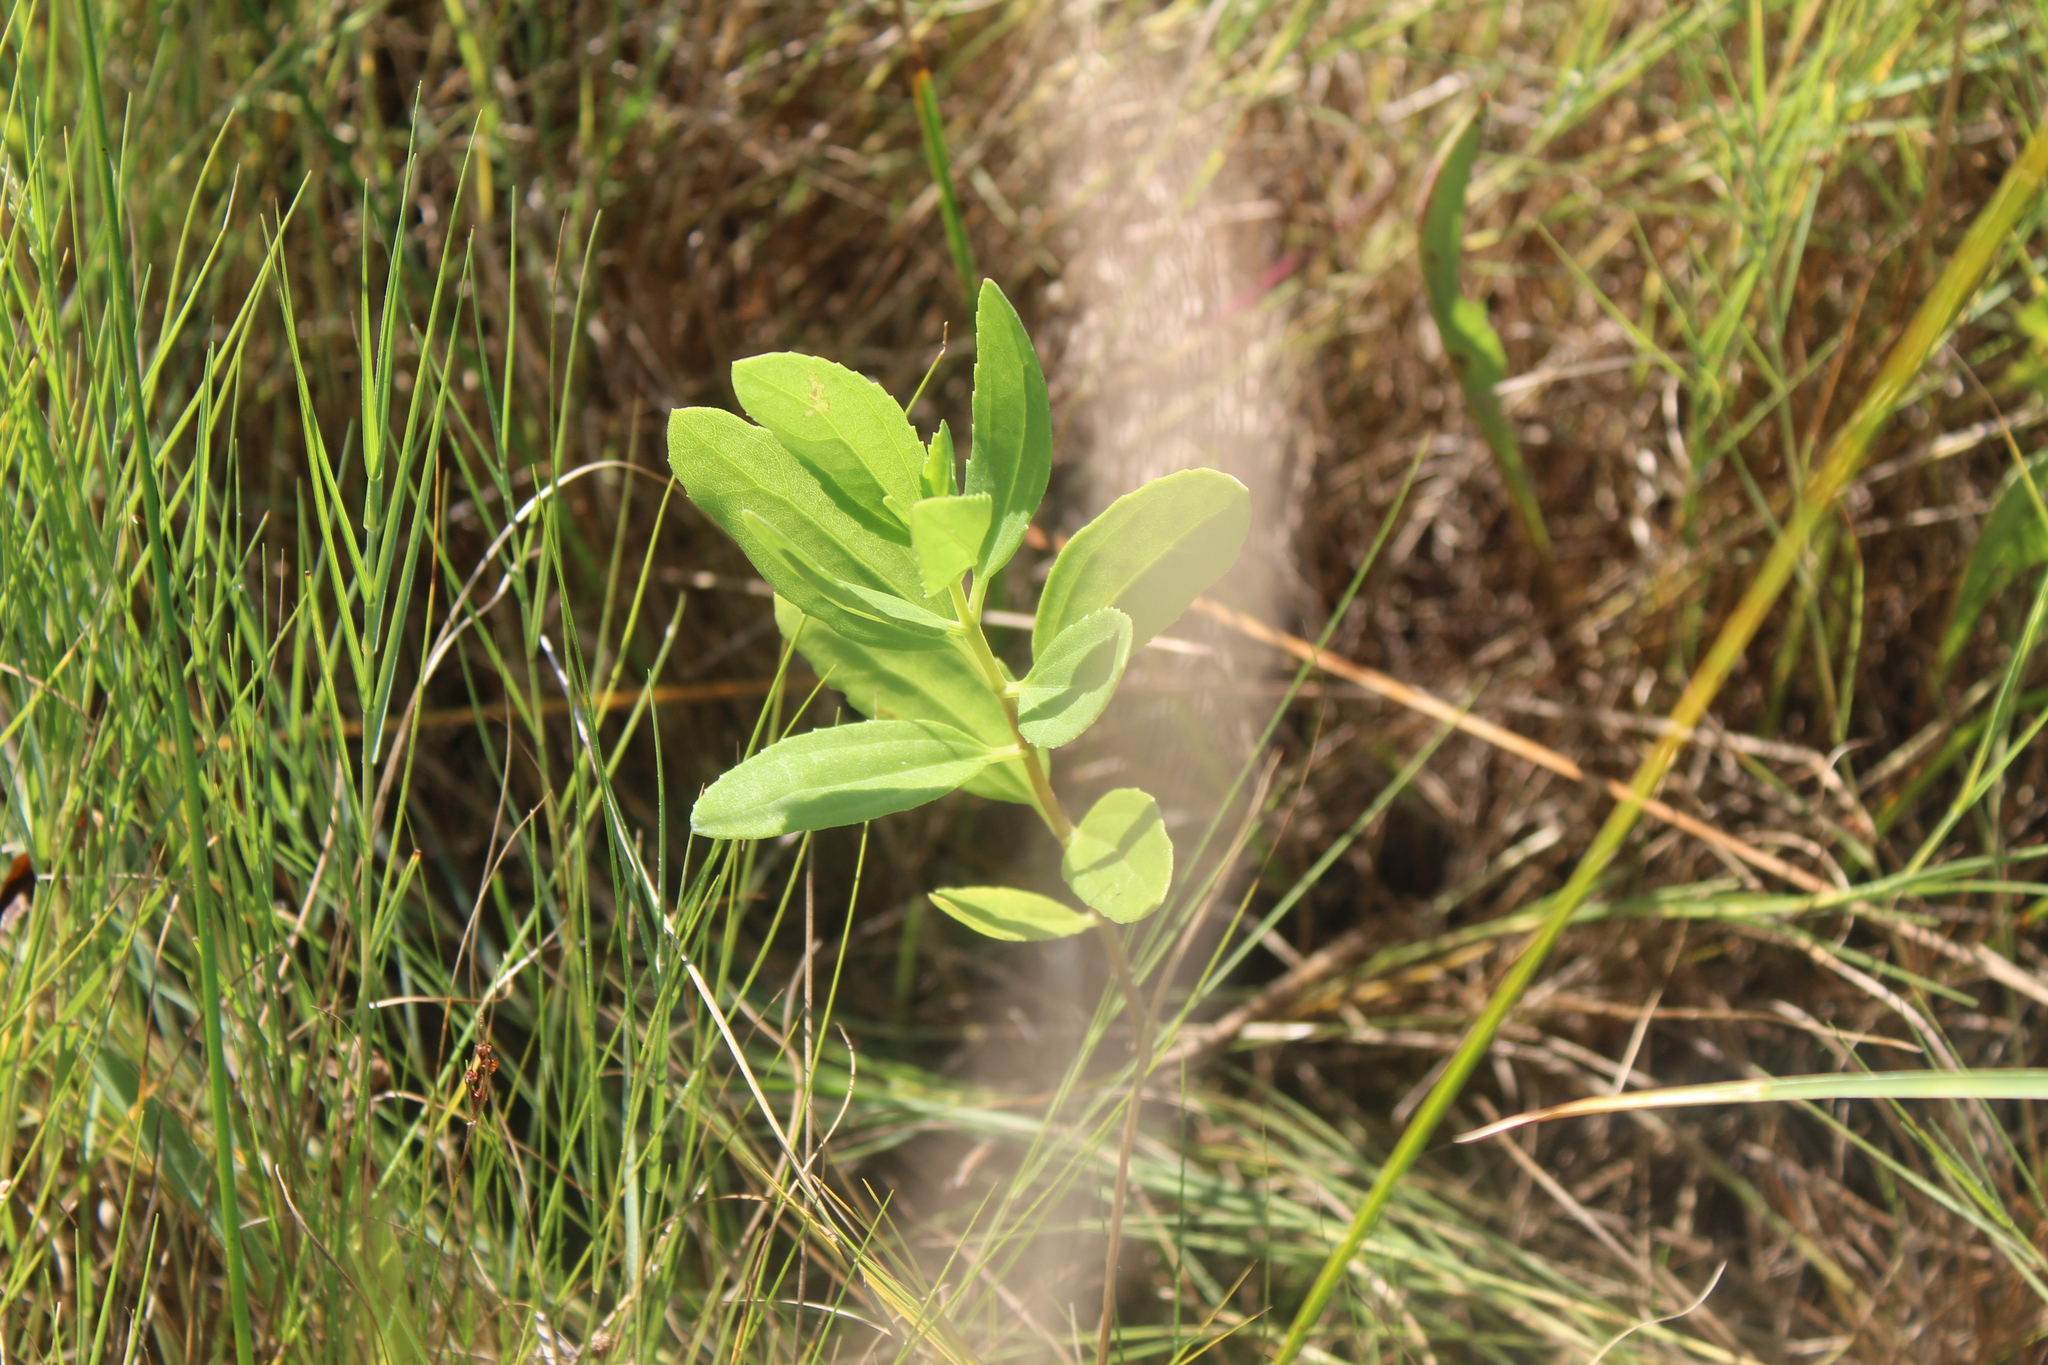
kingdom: Plantae
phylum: Tracheophyta
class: Magnoliopsida
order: Asterales
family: Asteraceae
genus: Iva
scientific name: Iva frutescens
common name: Big-leaved marsh-elder
